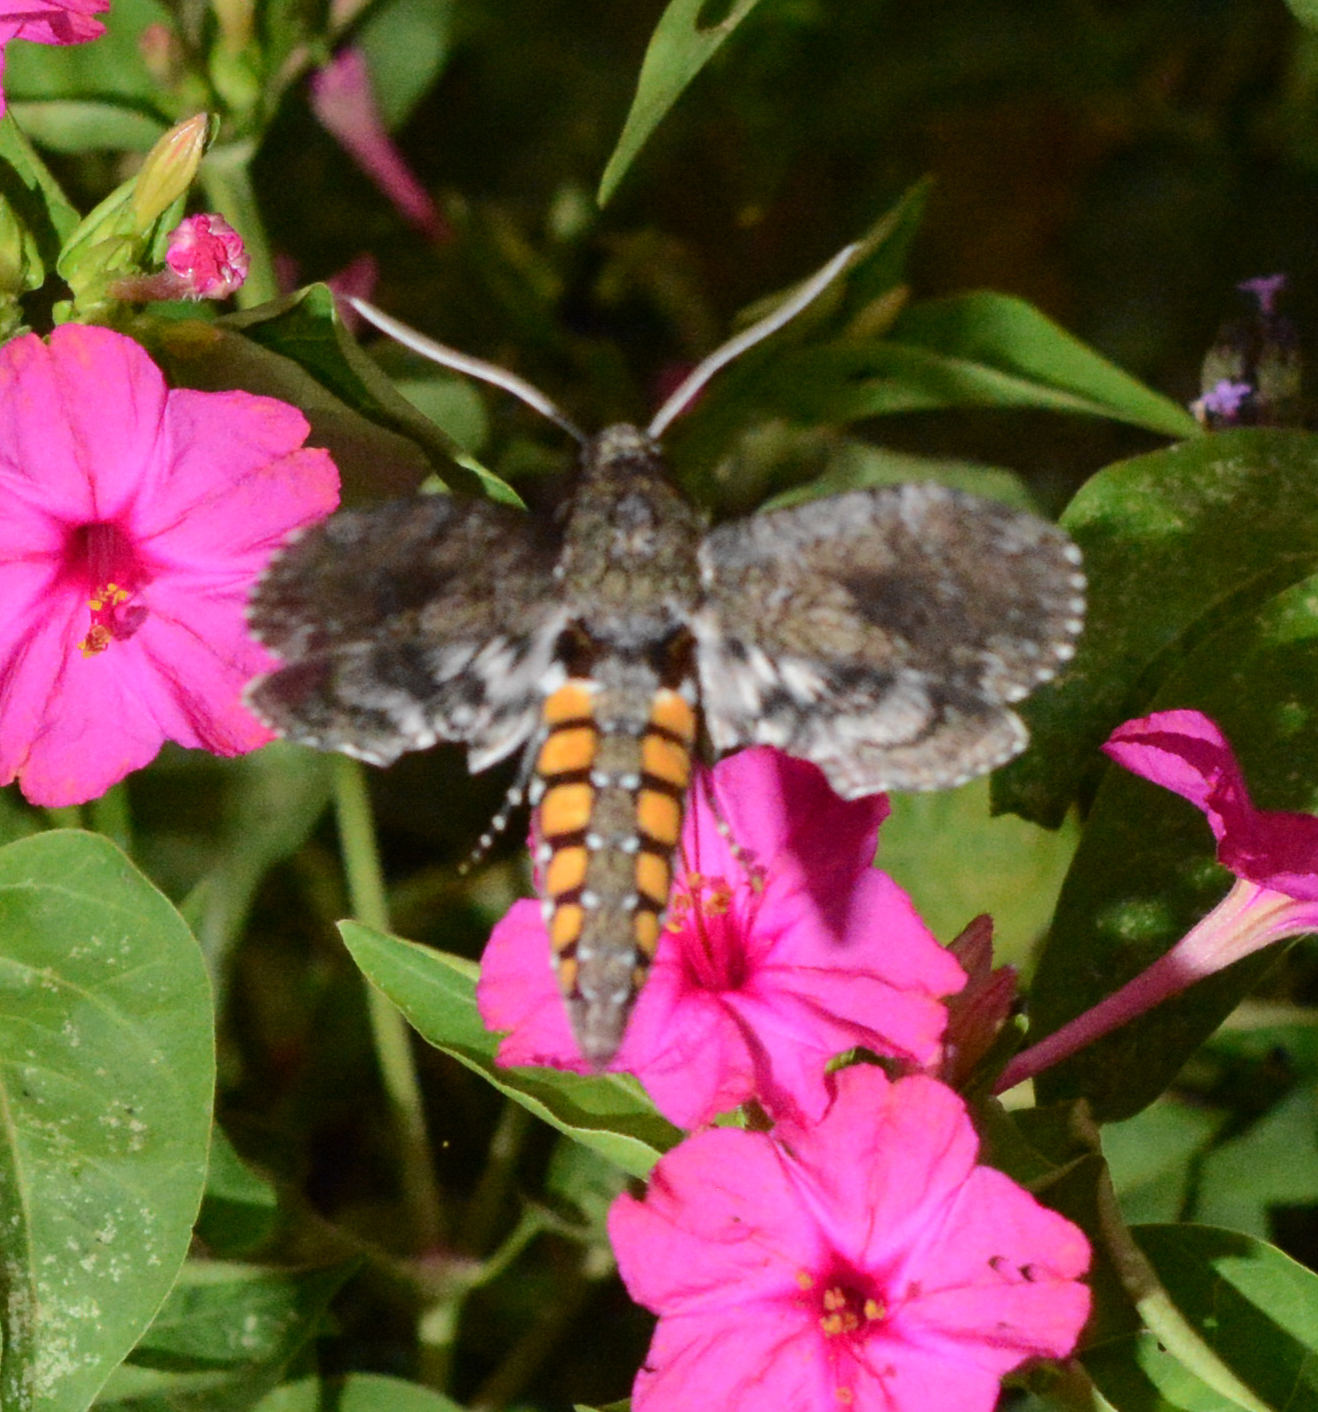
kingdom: Animalia
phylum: Arthropoda
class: Insecta
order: Lepidoptera
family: Sphingidae
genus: Manduca
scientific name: Manduca sexta
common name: Carolina sphinx
